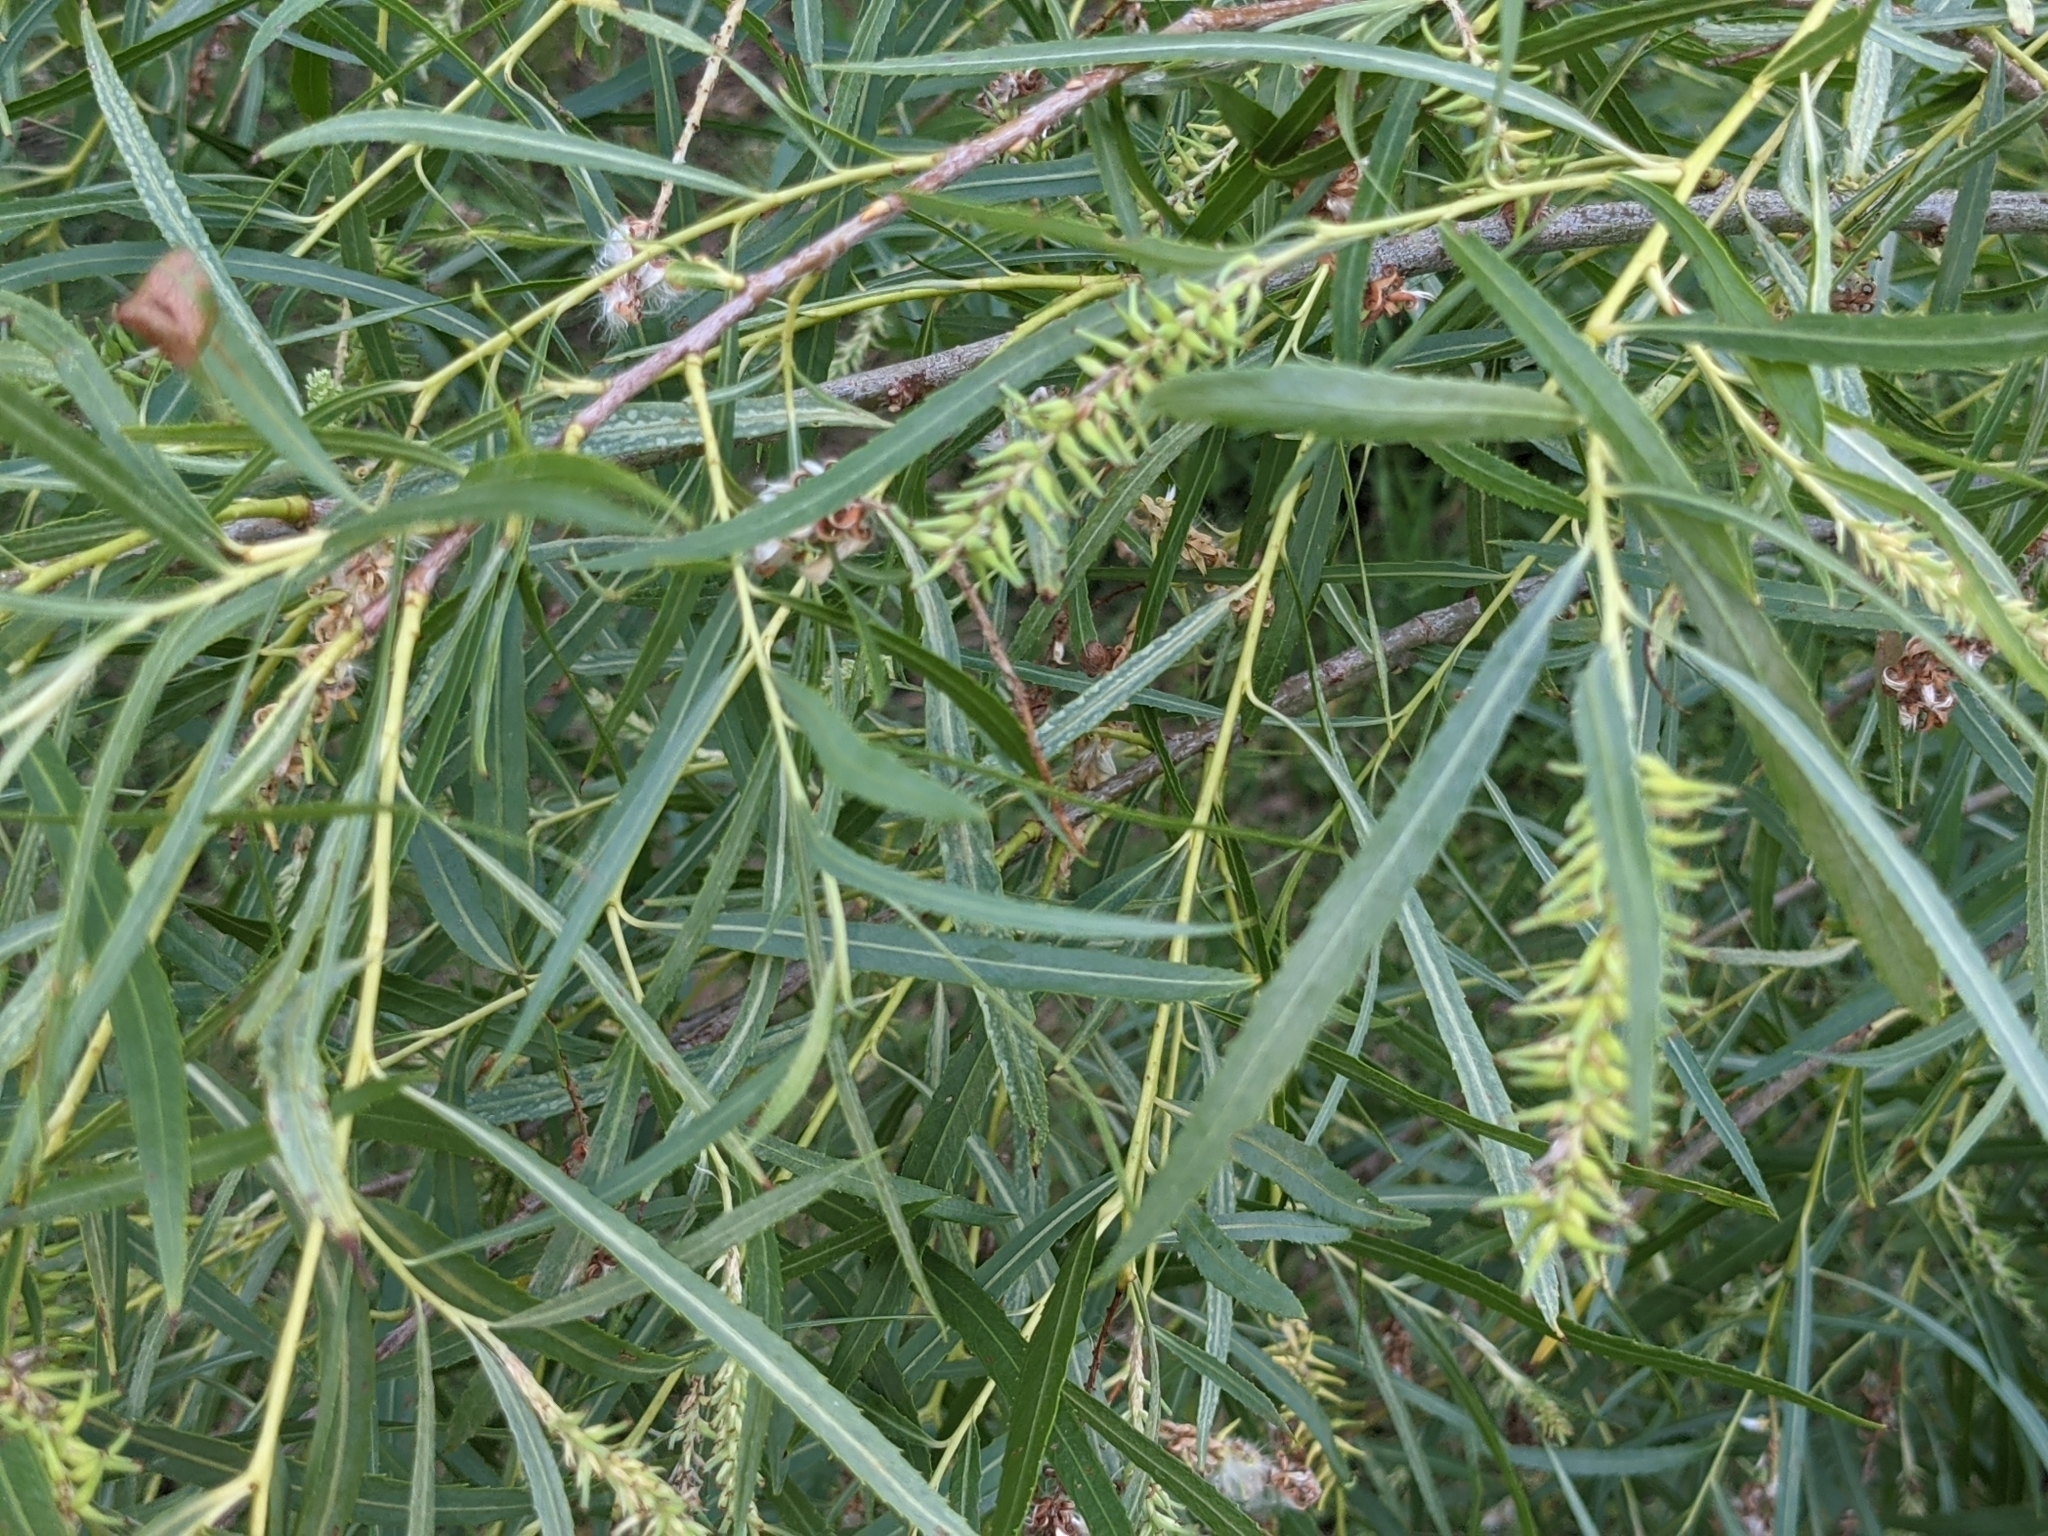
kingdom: Plantae
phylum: Tracheophyta
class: Magnoliopsida
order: Malpighiales
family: Salicaceae
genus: Salix
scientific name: Salix interior
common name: Sandbar willow
